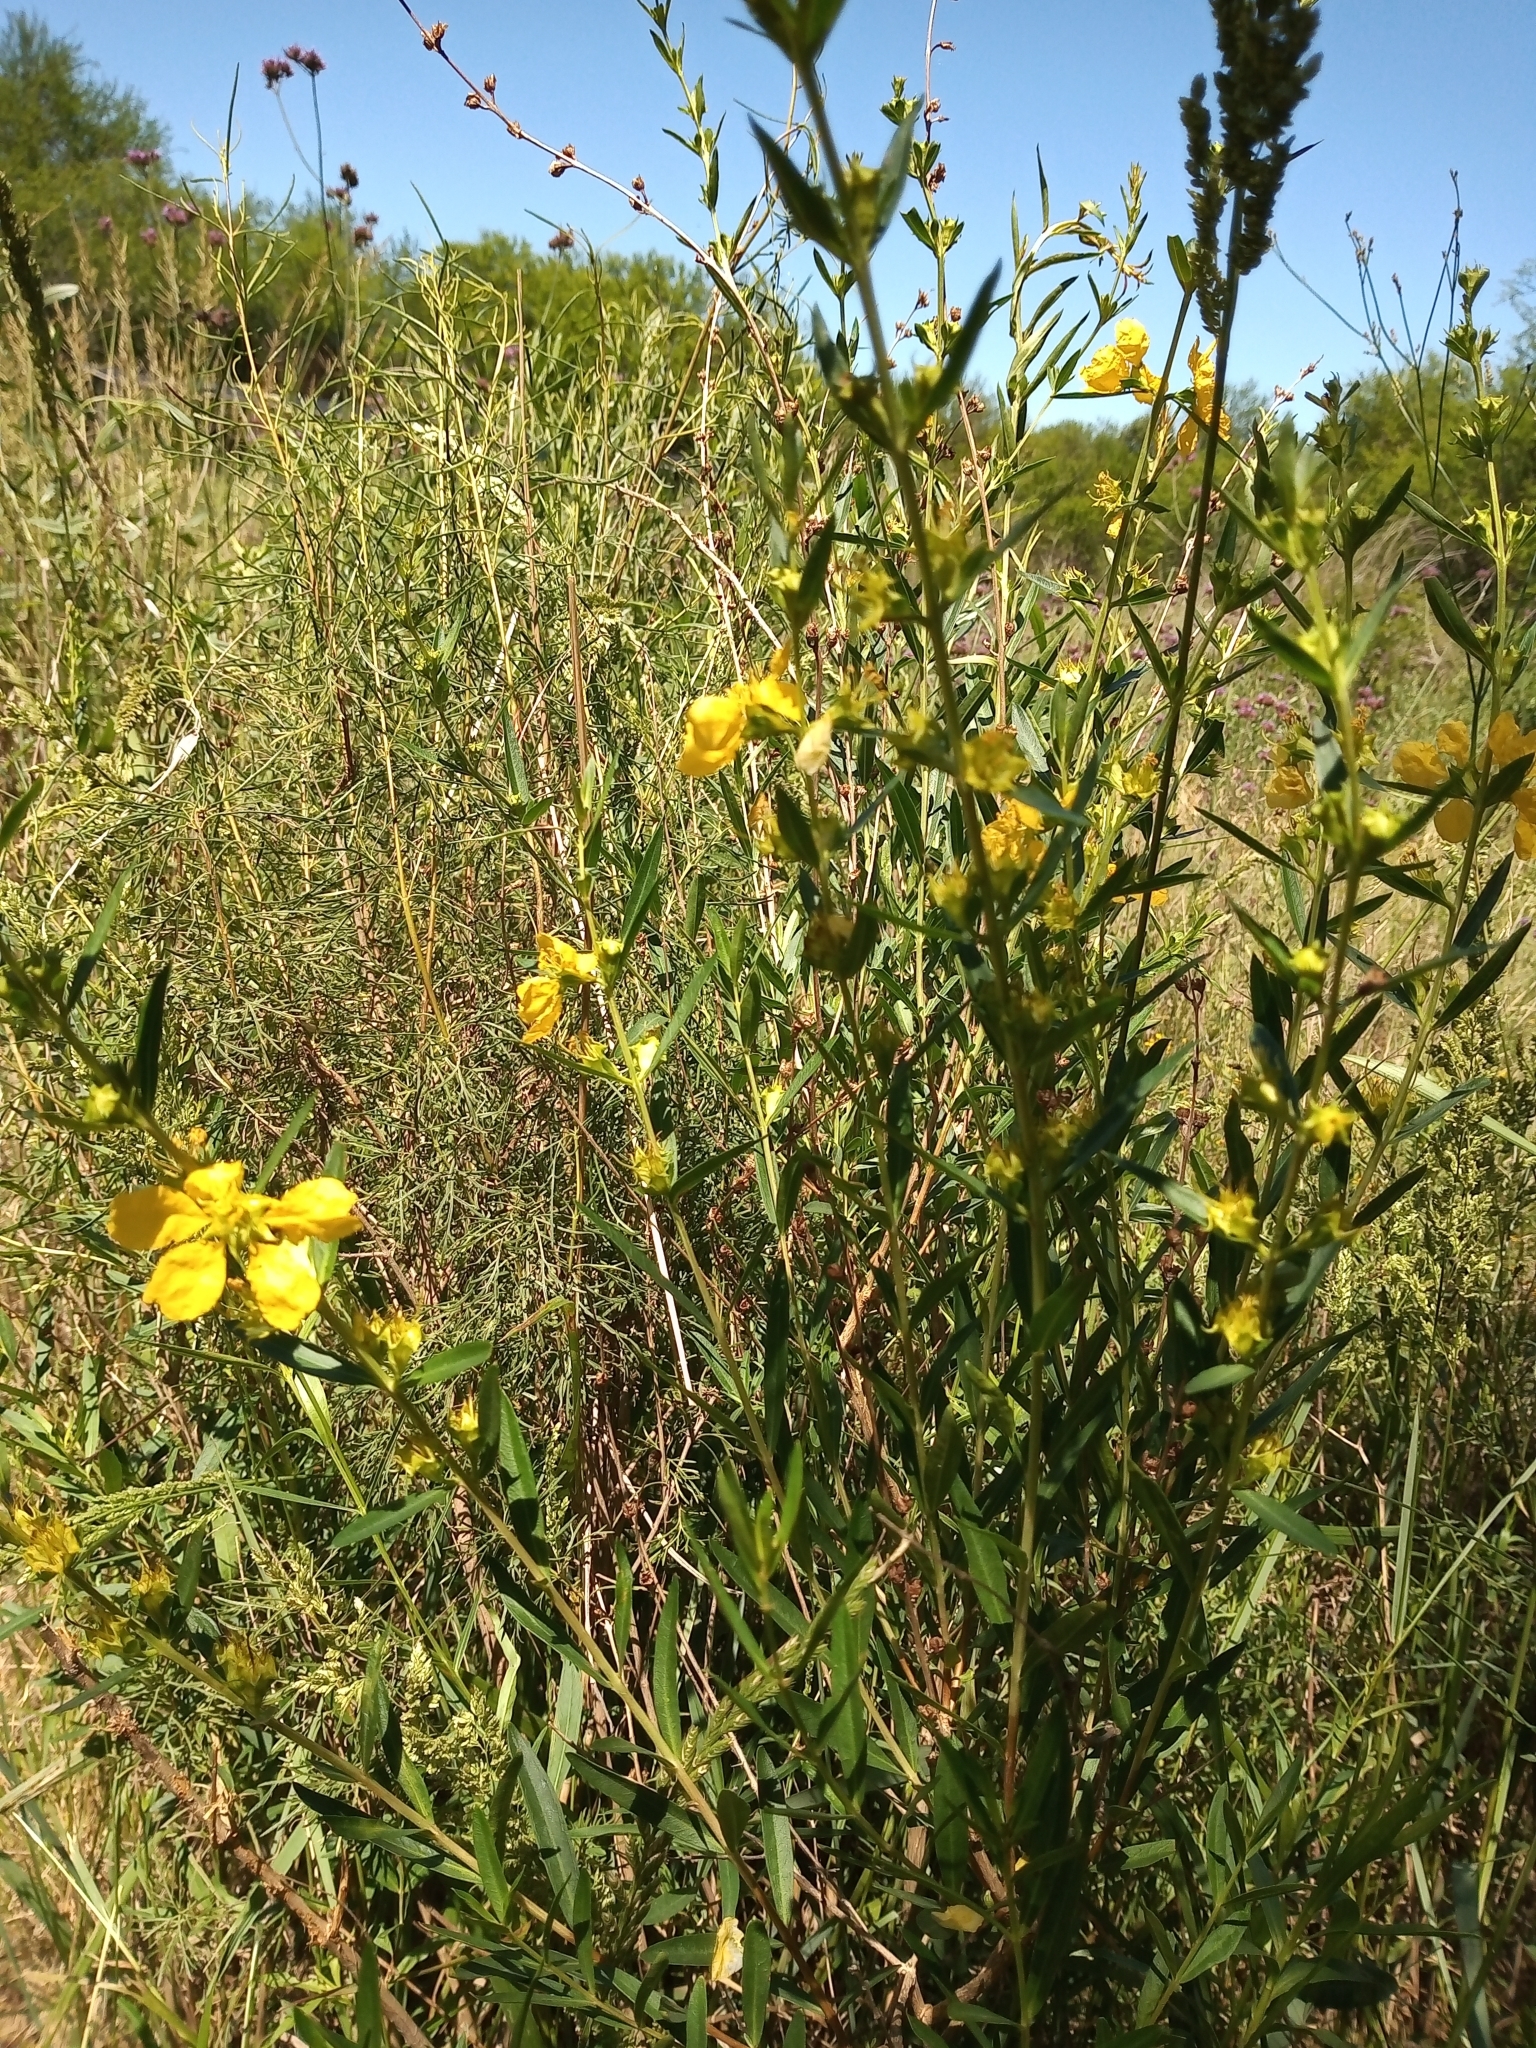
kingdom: Plantae
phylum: Tracheophyta
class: Magnoliopsida
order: Myrtales
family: Lythraceae
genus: Heimia
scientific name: Heimia salicifolia
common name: Willow-leaf heimia
